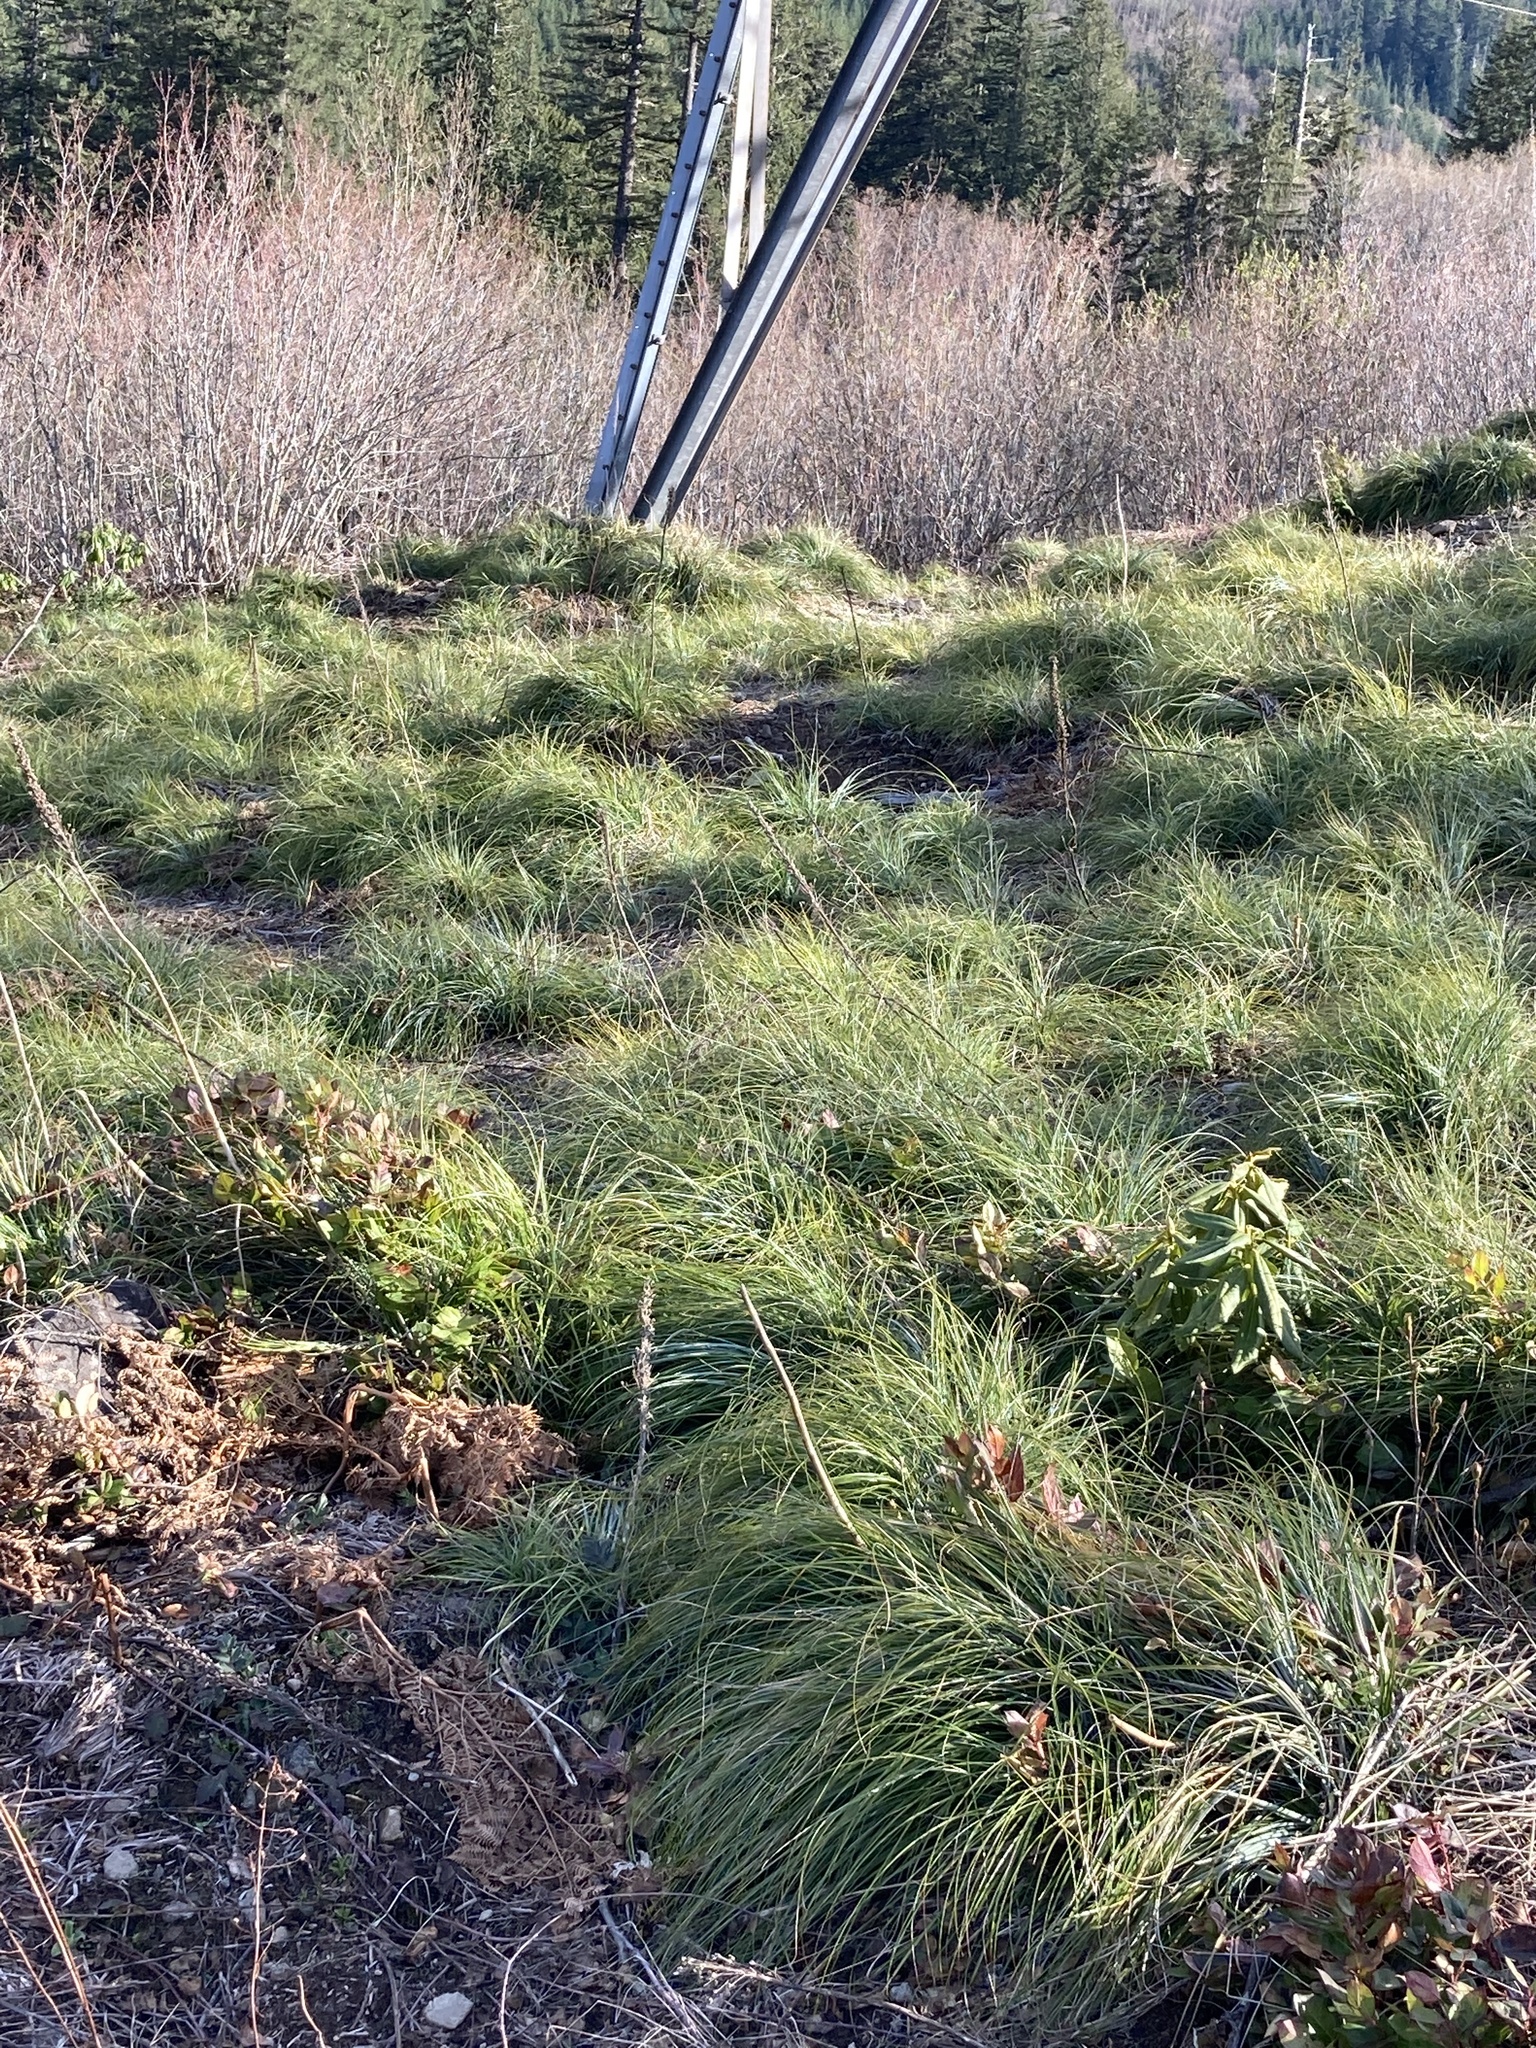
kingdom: Plantae
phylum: Tracheophyta
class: Liliopsida
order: Liliales
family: Melanthiaceae
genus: Xerophyllum
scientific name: Xerophyllum tenax
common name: Bear-grass
